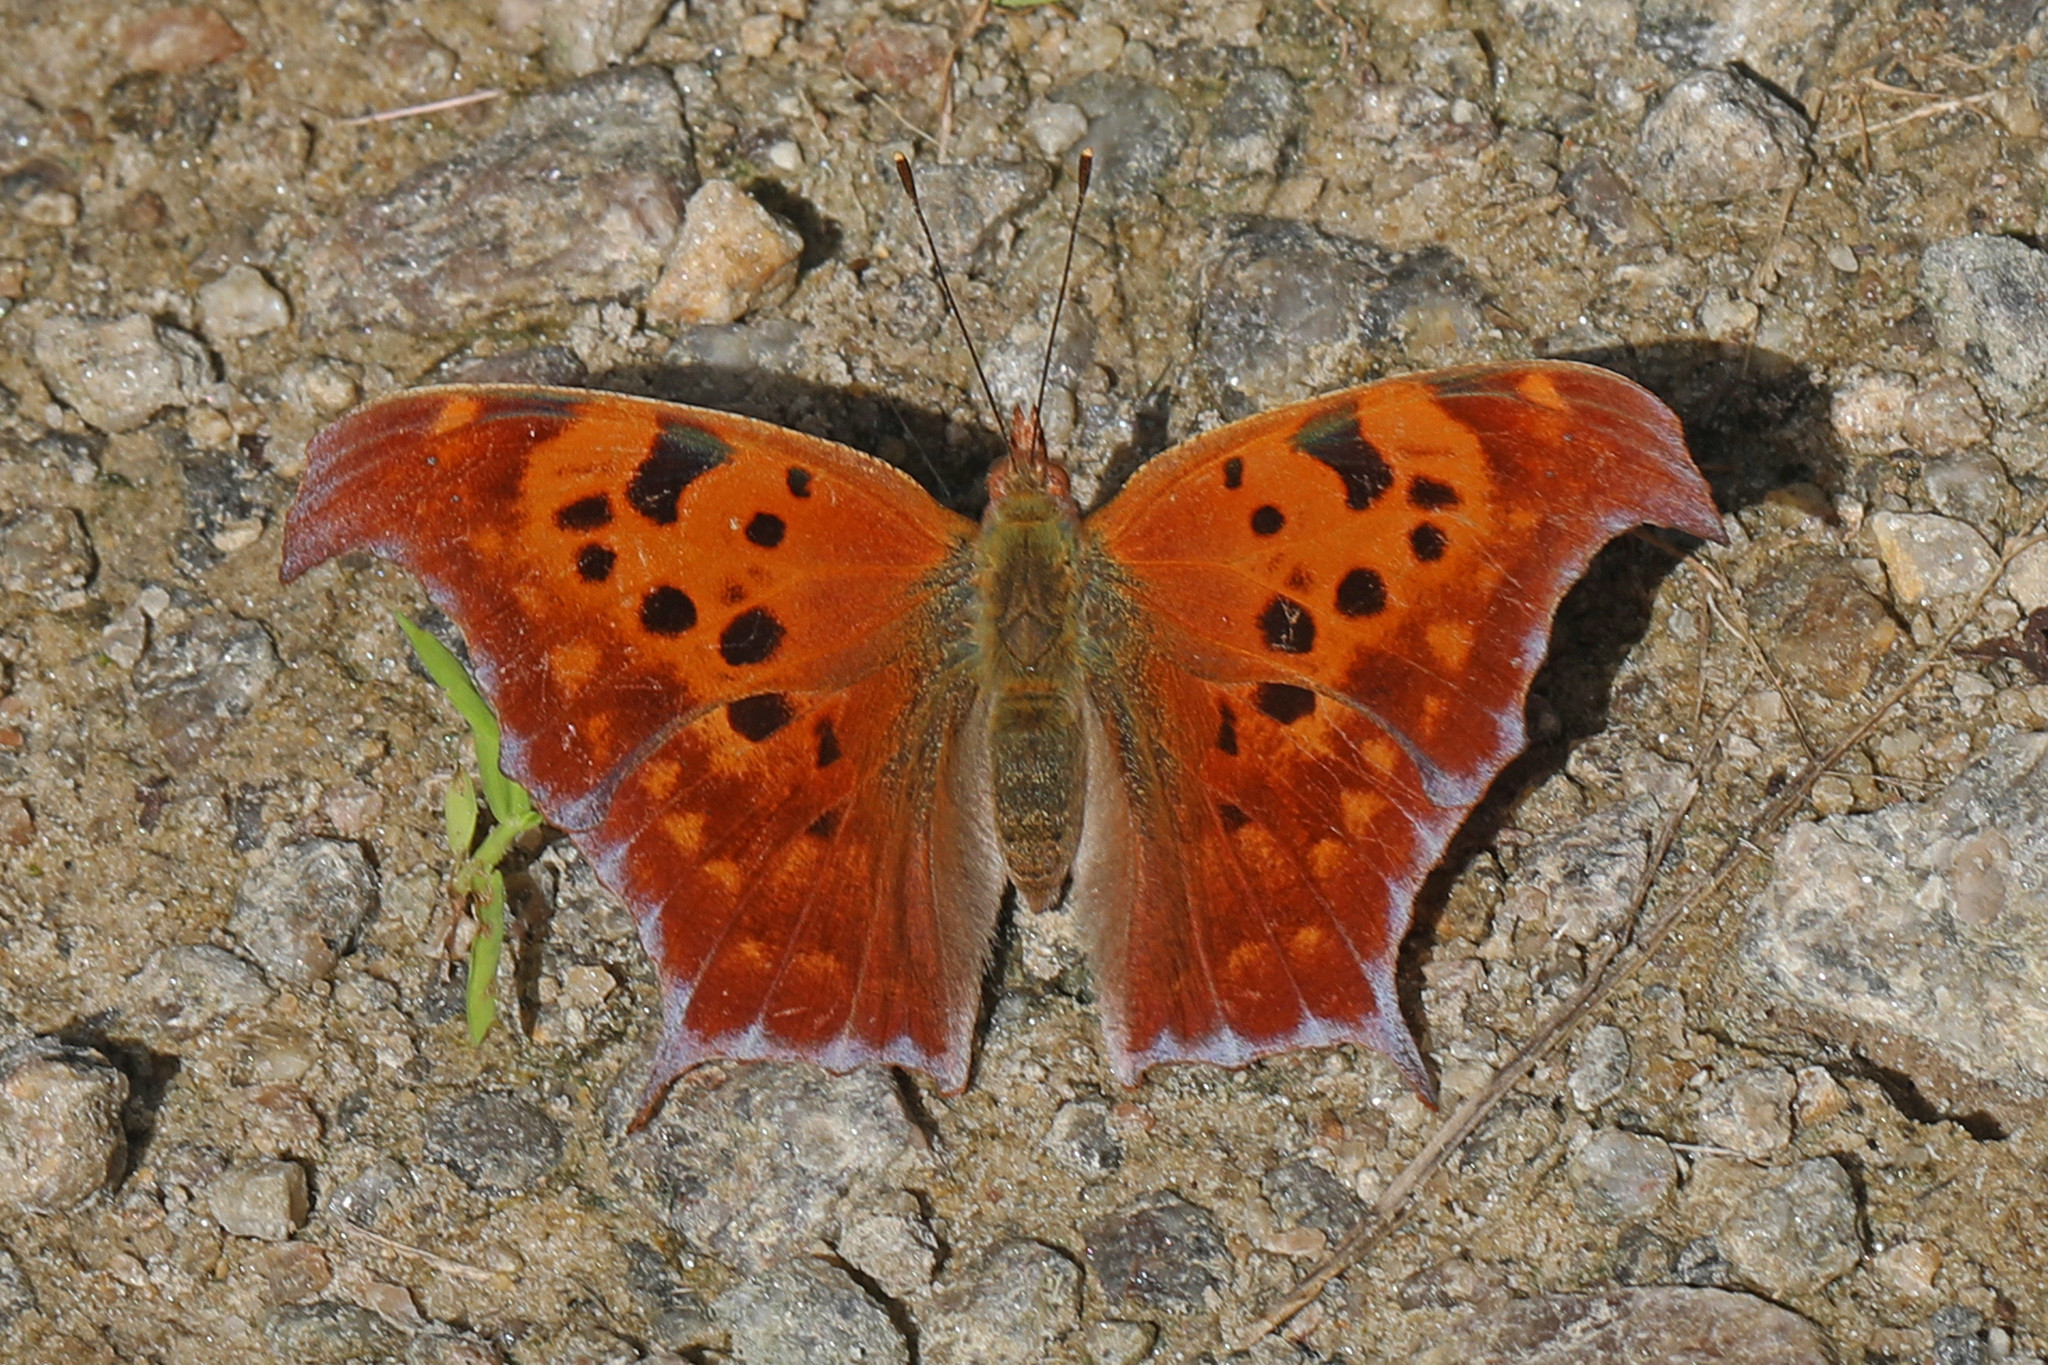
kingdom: Animalia
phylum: Arthropoda
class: Insecta
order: Lepidoptera
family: Nymphalidae
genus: Polygonia
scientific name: Polygonia interrogationis
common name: Question mark
